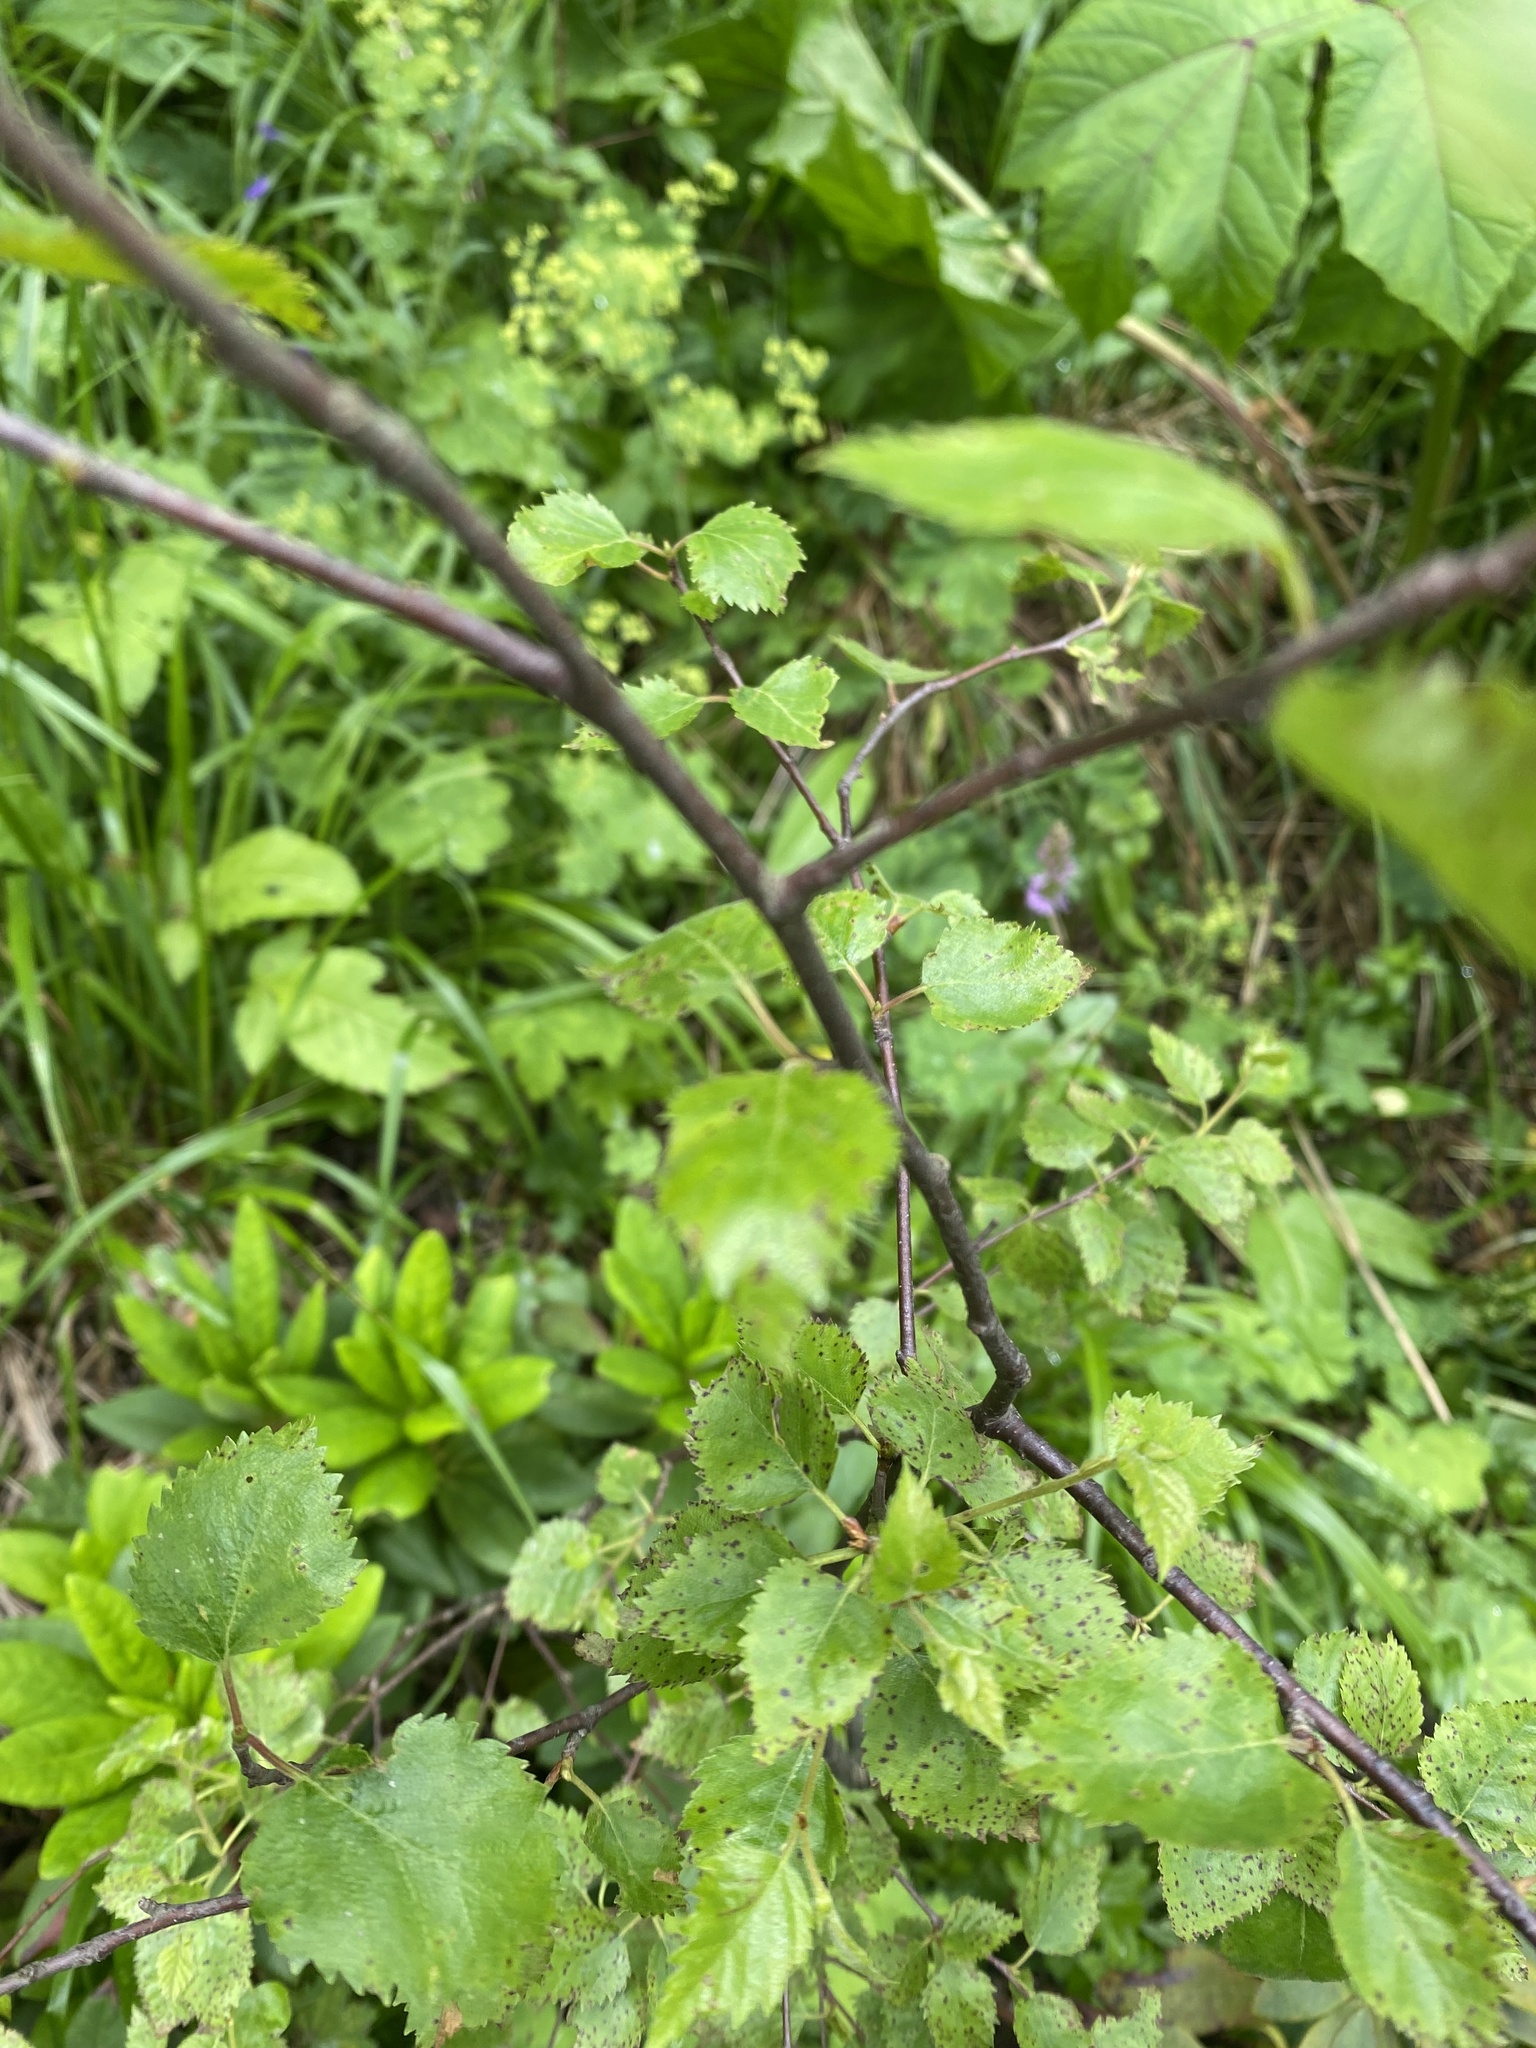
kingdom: Plantae
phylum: Tracheophyta
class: Magnoliopsida
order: Fagales
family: Betulaceae
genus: Betula
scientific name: Betula pubescens
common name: Downy birch
